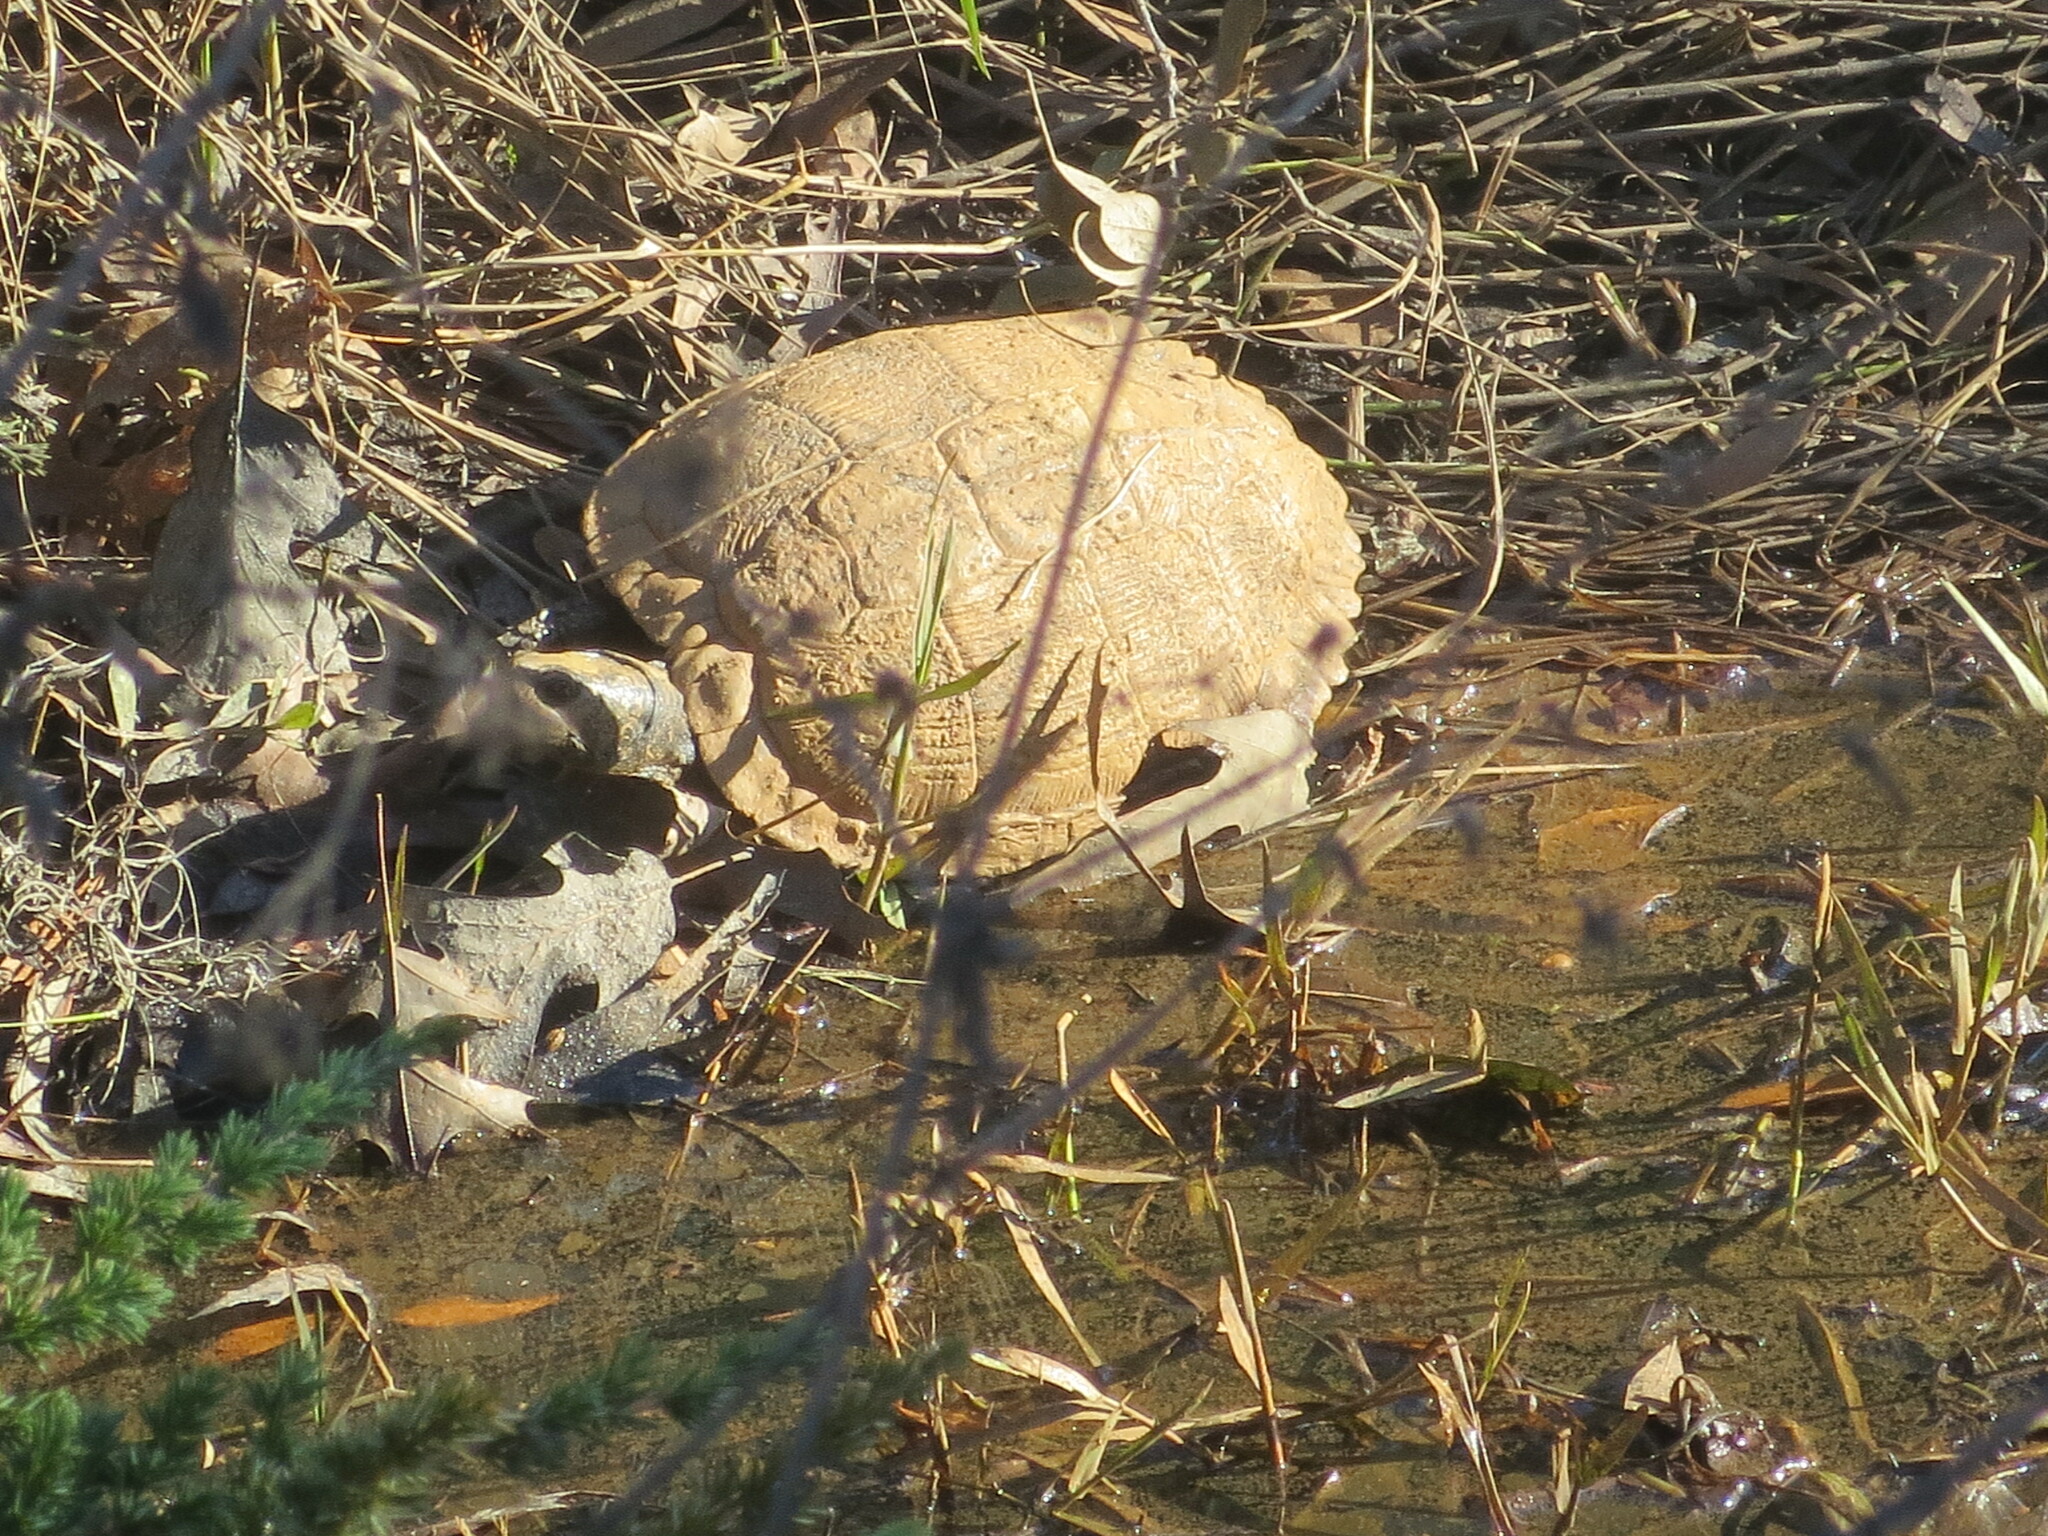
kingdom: Animalia
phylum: Chordata
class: Testudines
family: Emydidae
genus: Trachemys
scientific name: Trachemys scripta
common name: Slider
